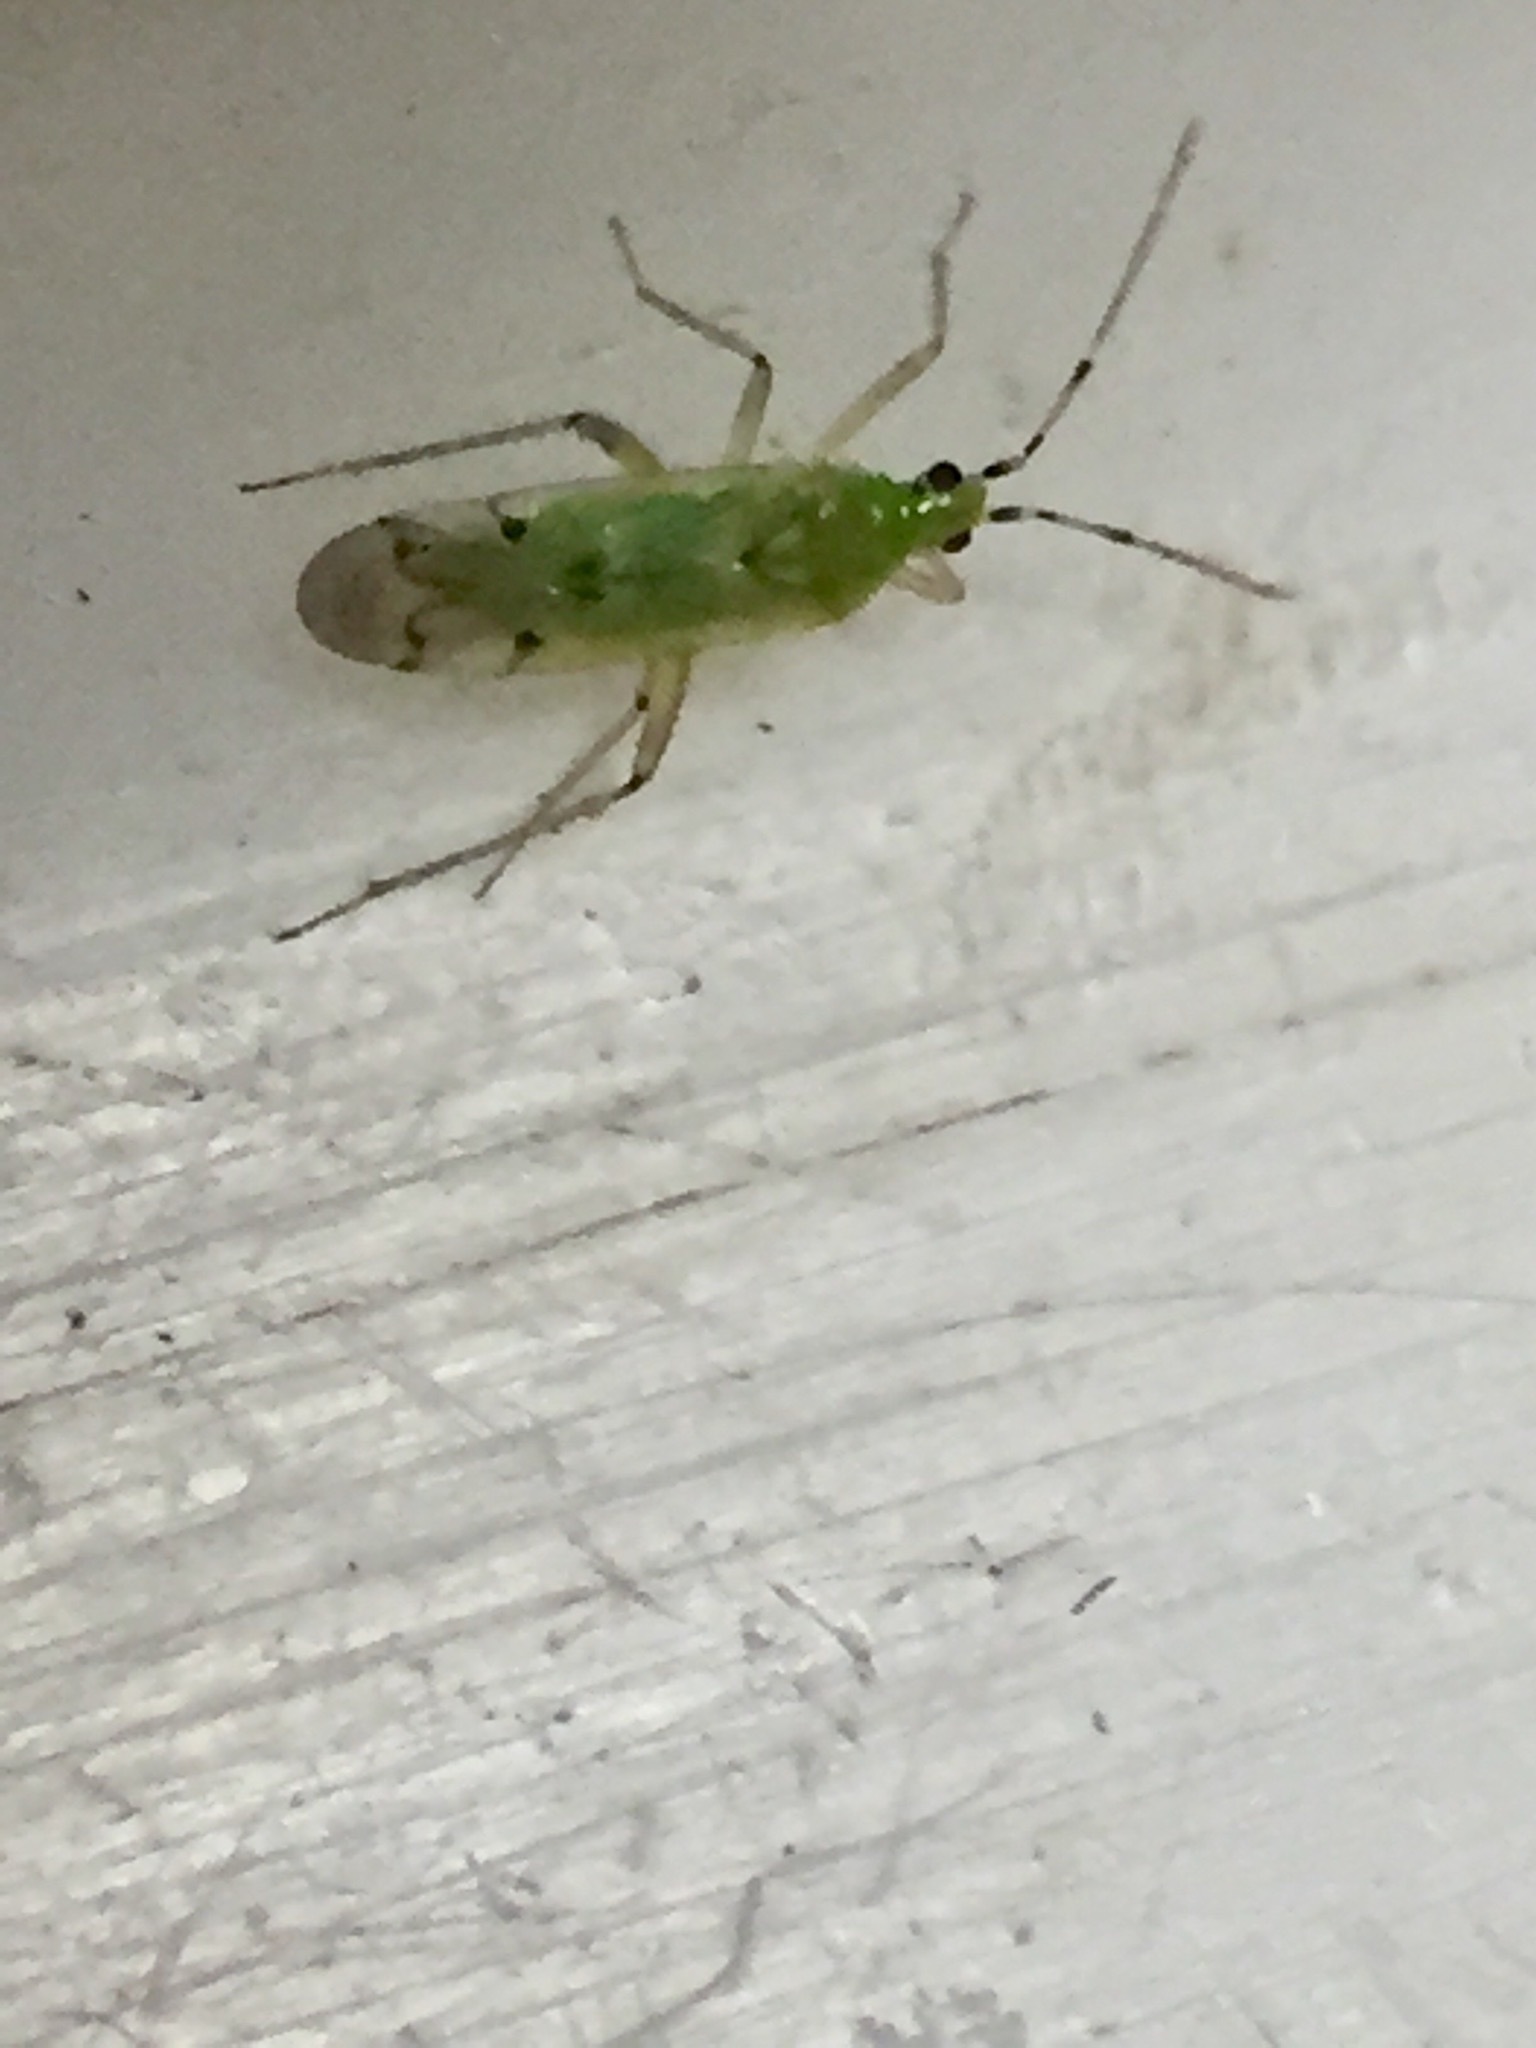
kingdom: Animalia
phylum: Arthropoda
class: Insecta
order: Hemiptera
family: Miridae
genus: Engytatus
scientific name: Engytatus nicotianae
